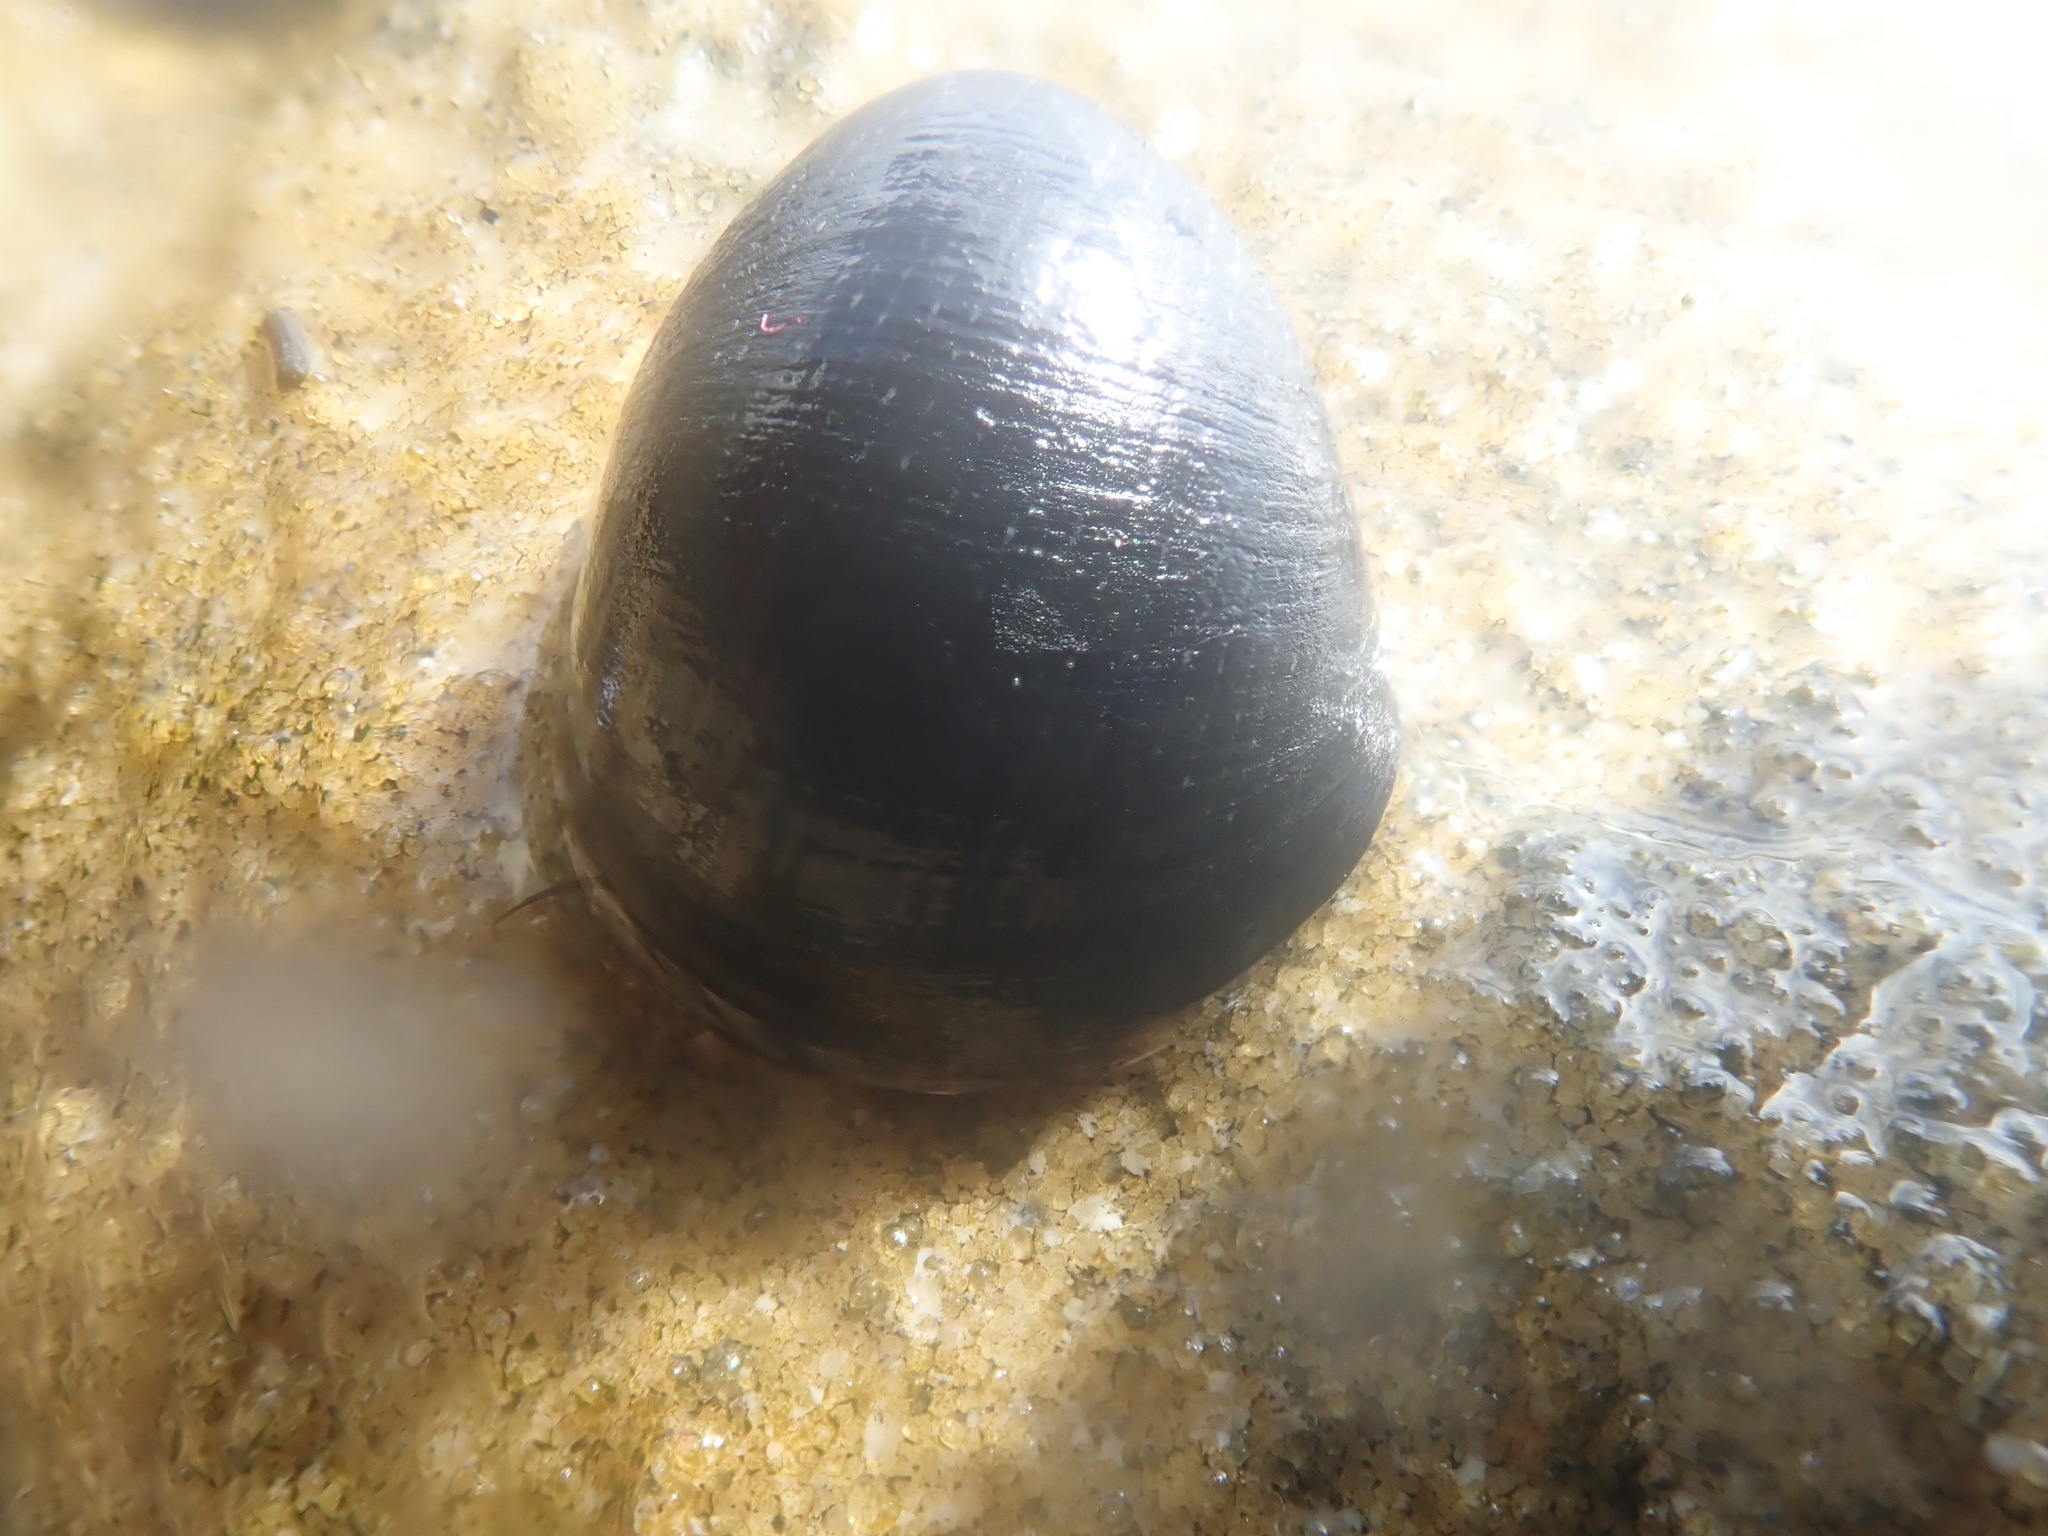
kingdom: Animalia
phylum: Mollusca
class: Gastropoda
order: Cycloneritida
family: Neritidae
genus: Nerita
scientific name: Nerita melanotragus
